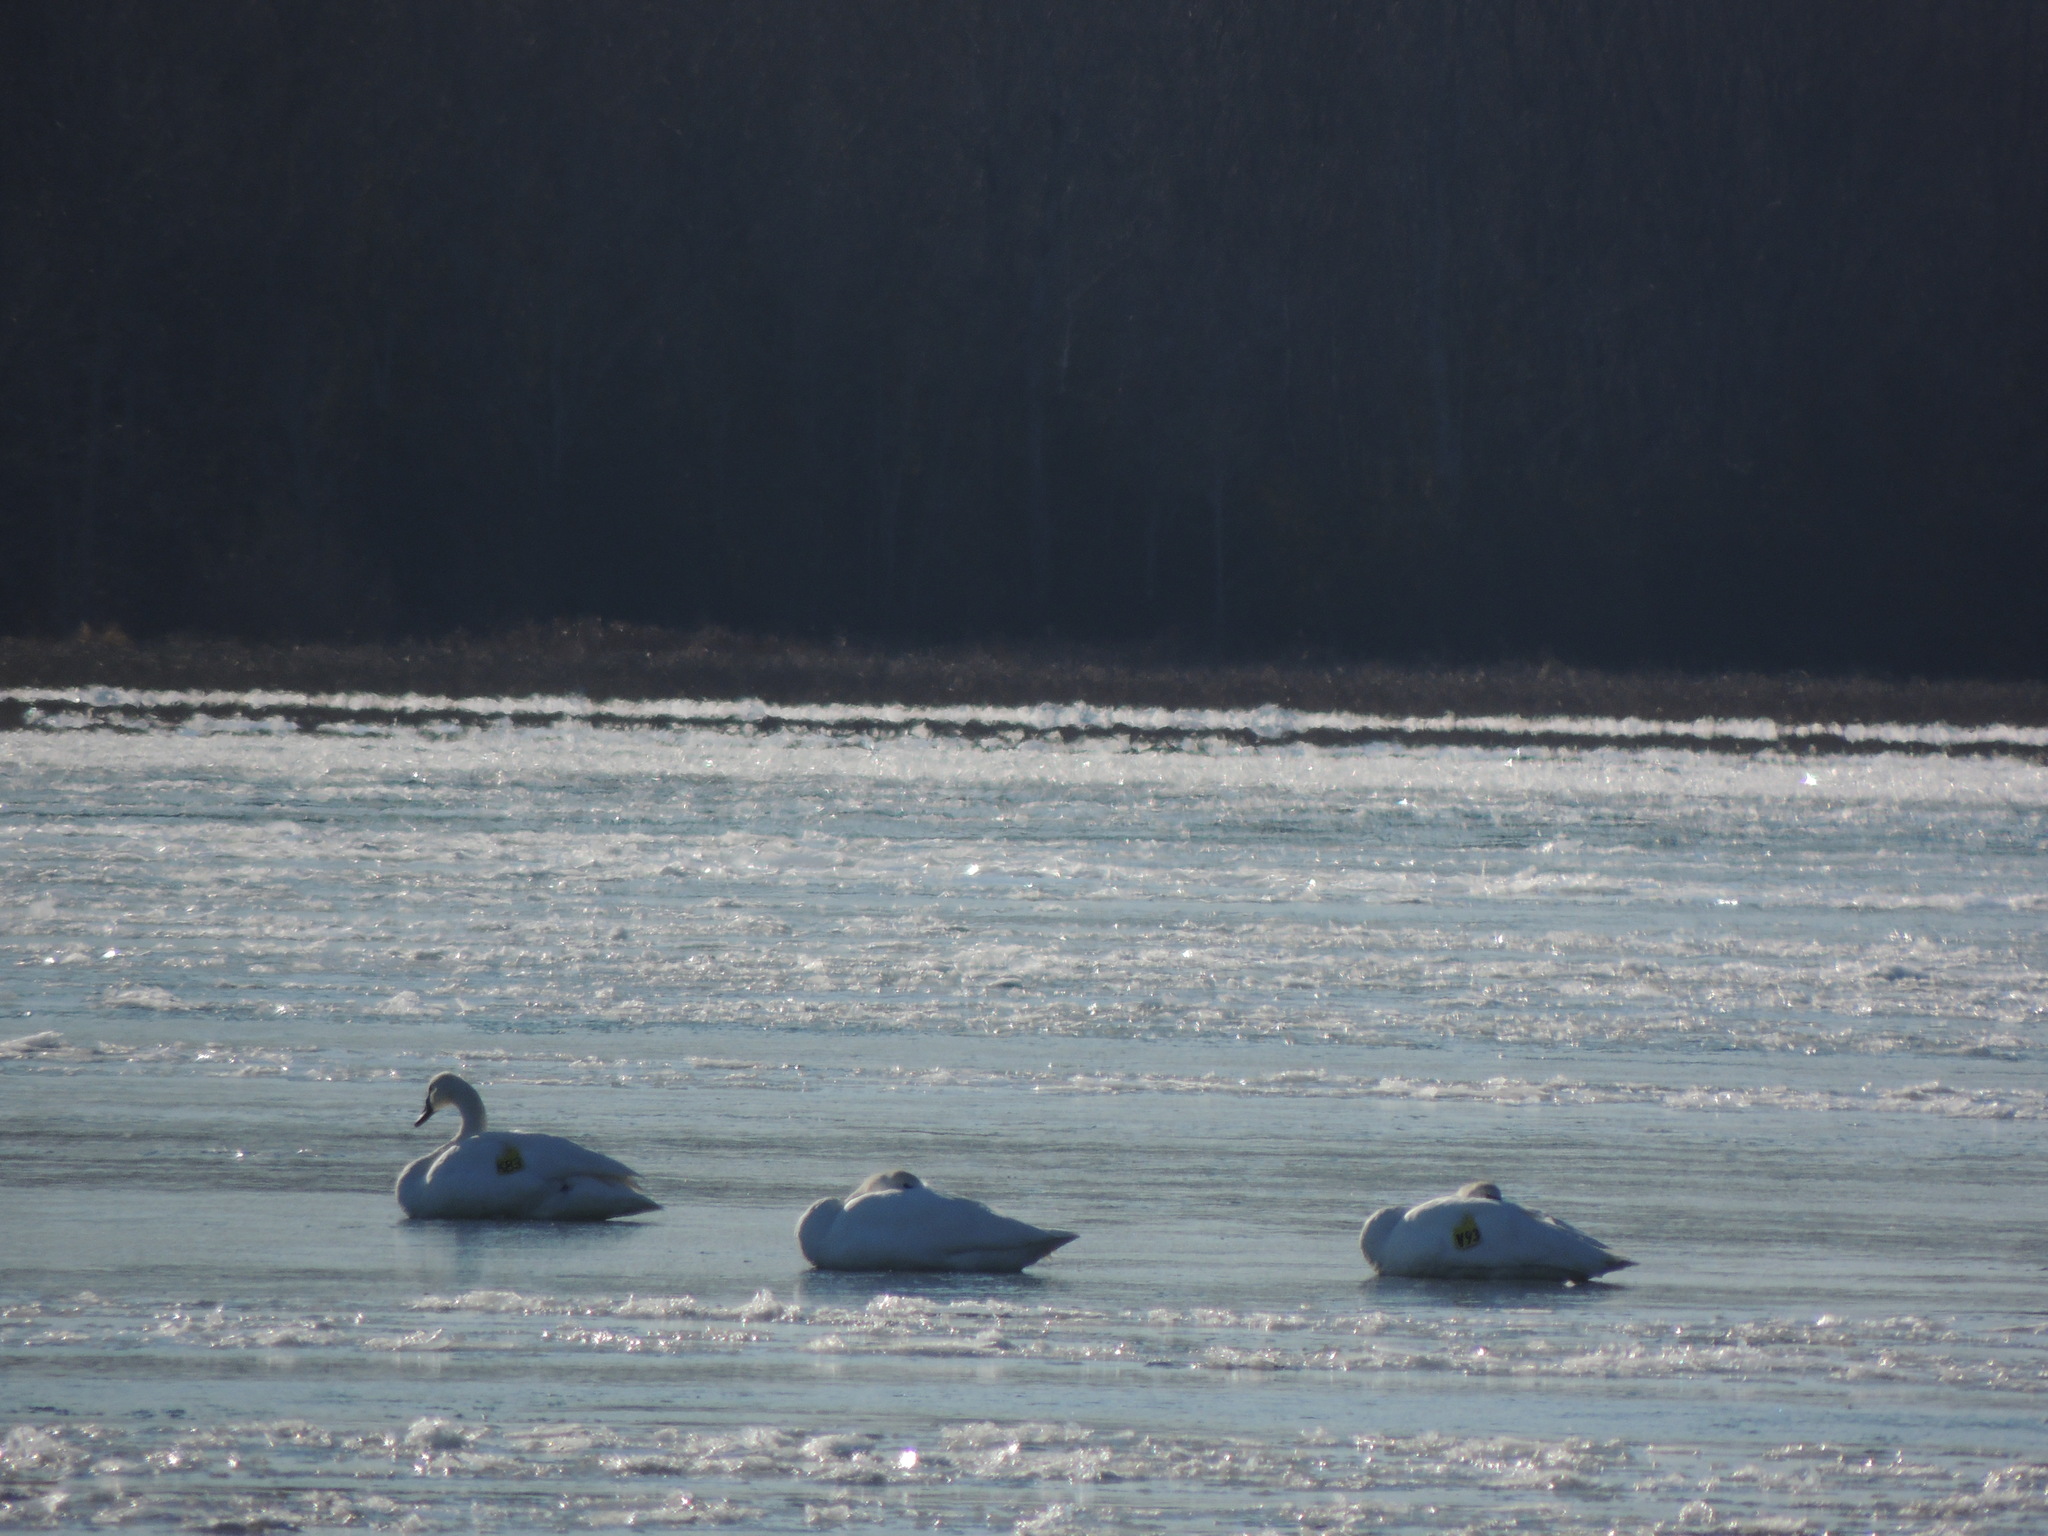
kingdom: Animalia
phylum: Chordata
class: Aves
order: Anseriformes
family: Anatidae
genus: Cygnus
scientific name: Cygnus buccinator
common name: Trumpeter swan
